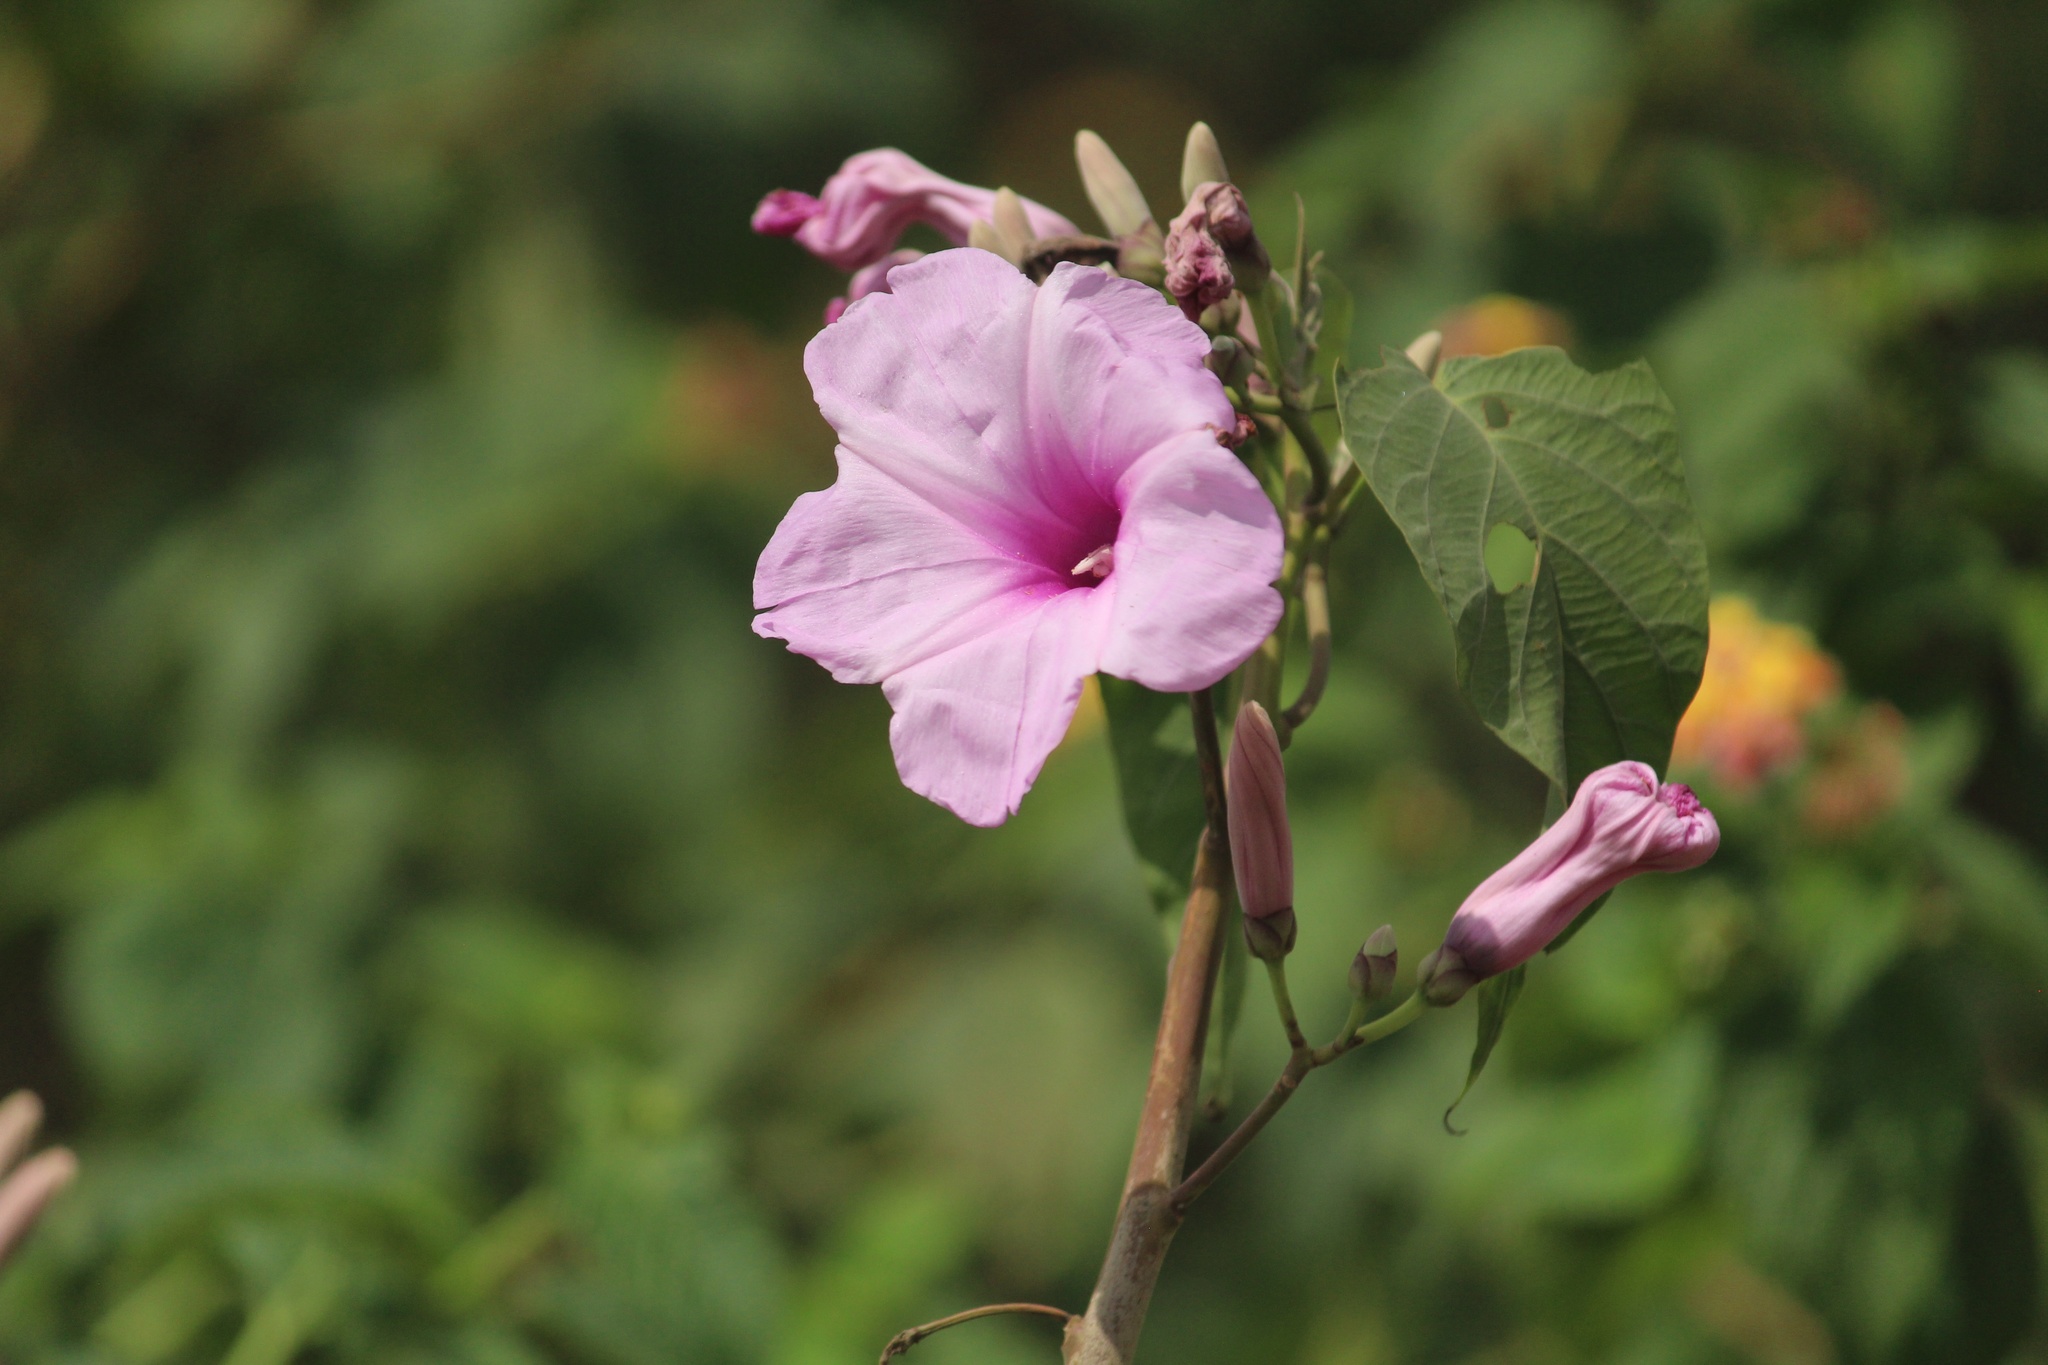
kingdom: Plantae
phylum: Tracheophyta
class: Magnoliopsida
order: Solanales
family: Convolvulaceae
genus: Ipomoea
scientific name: Ipomoea carnea
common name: Morning-glory
